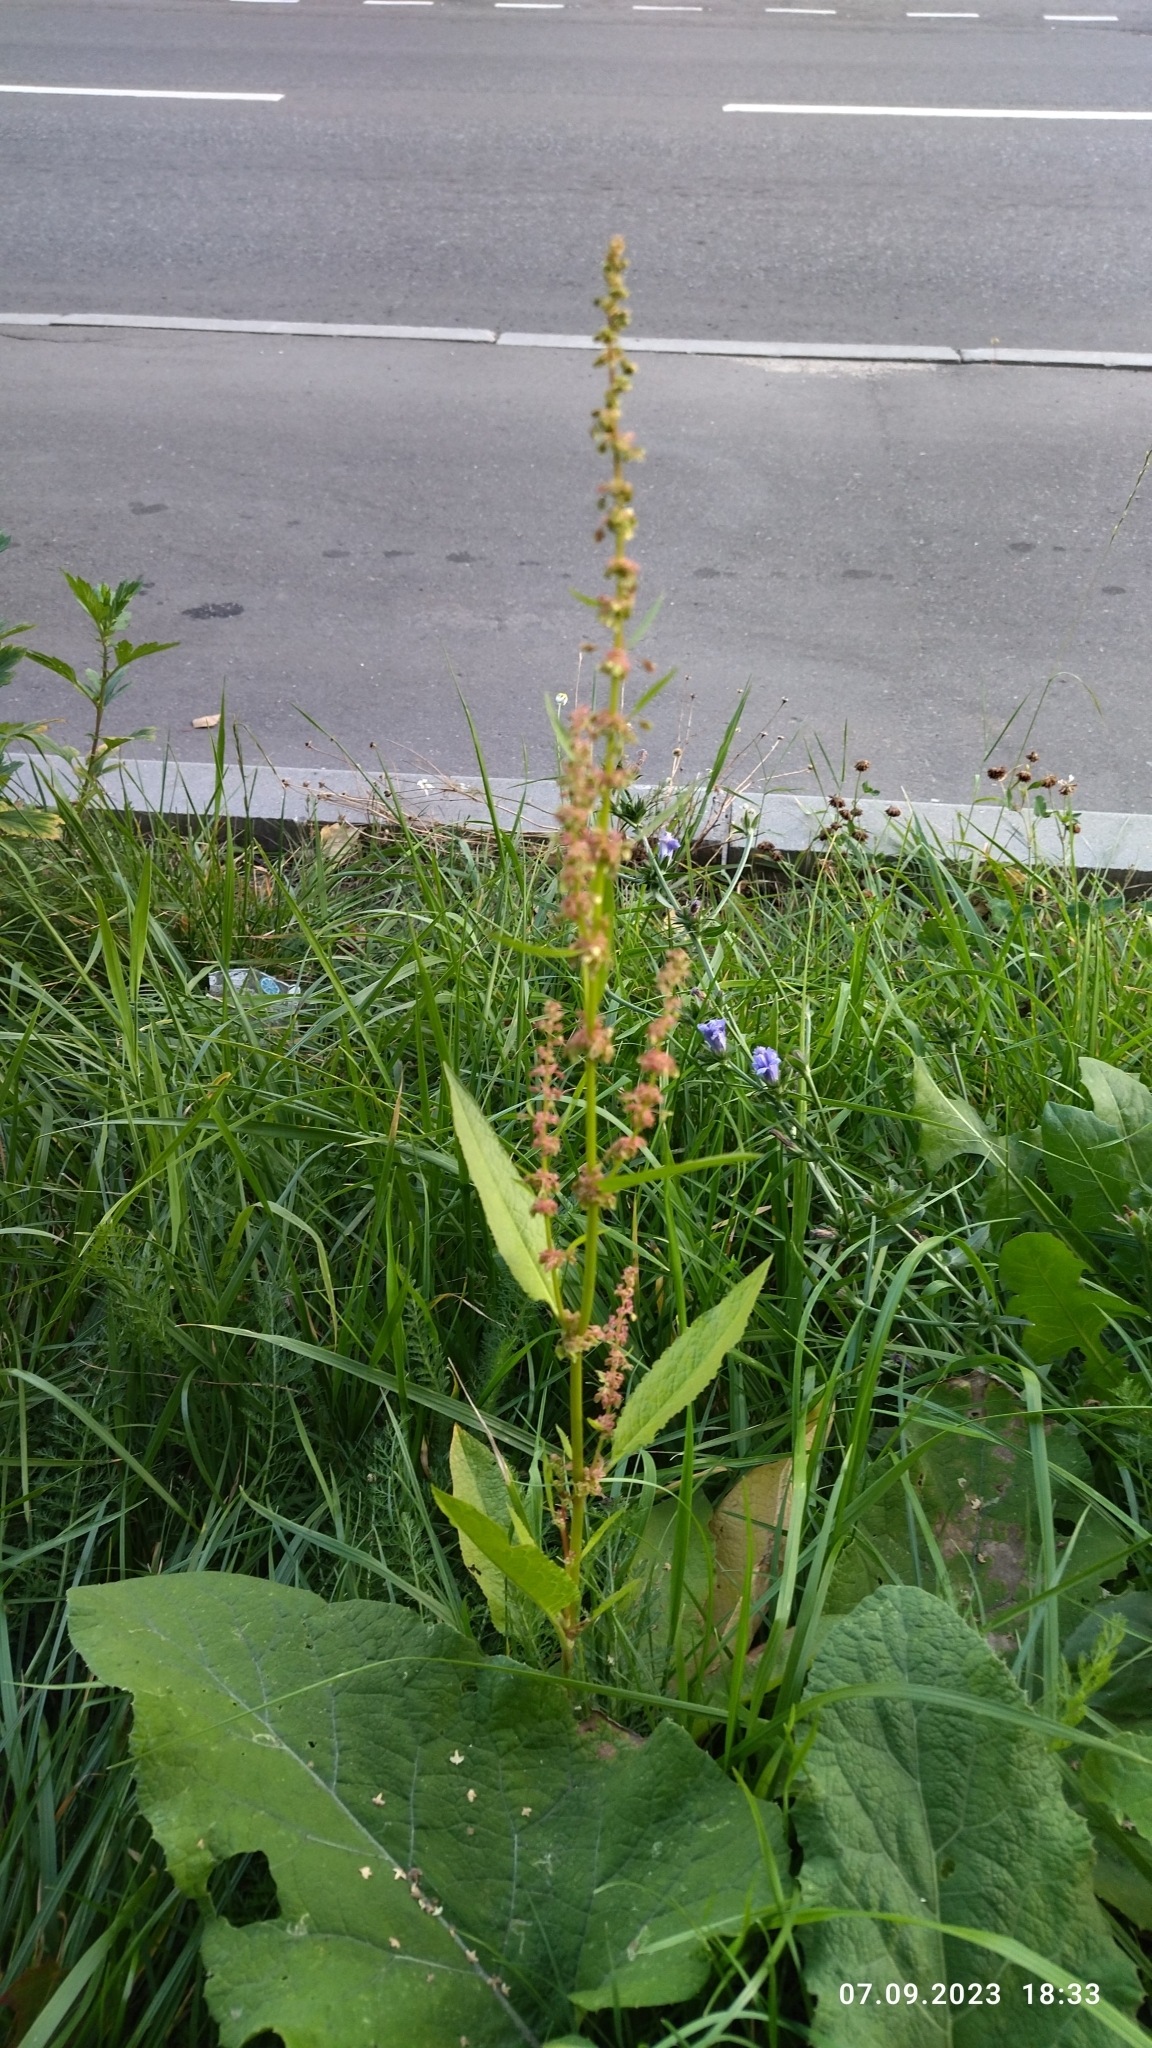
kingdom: Plantae
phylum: Tracheophyta
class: Magnoliopsida
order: Caryophyllales
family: Polygonaceae
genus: Rumex
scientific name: Rumex obtusifolius
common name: Bitter dock
